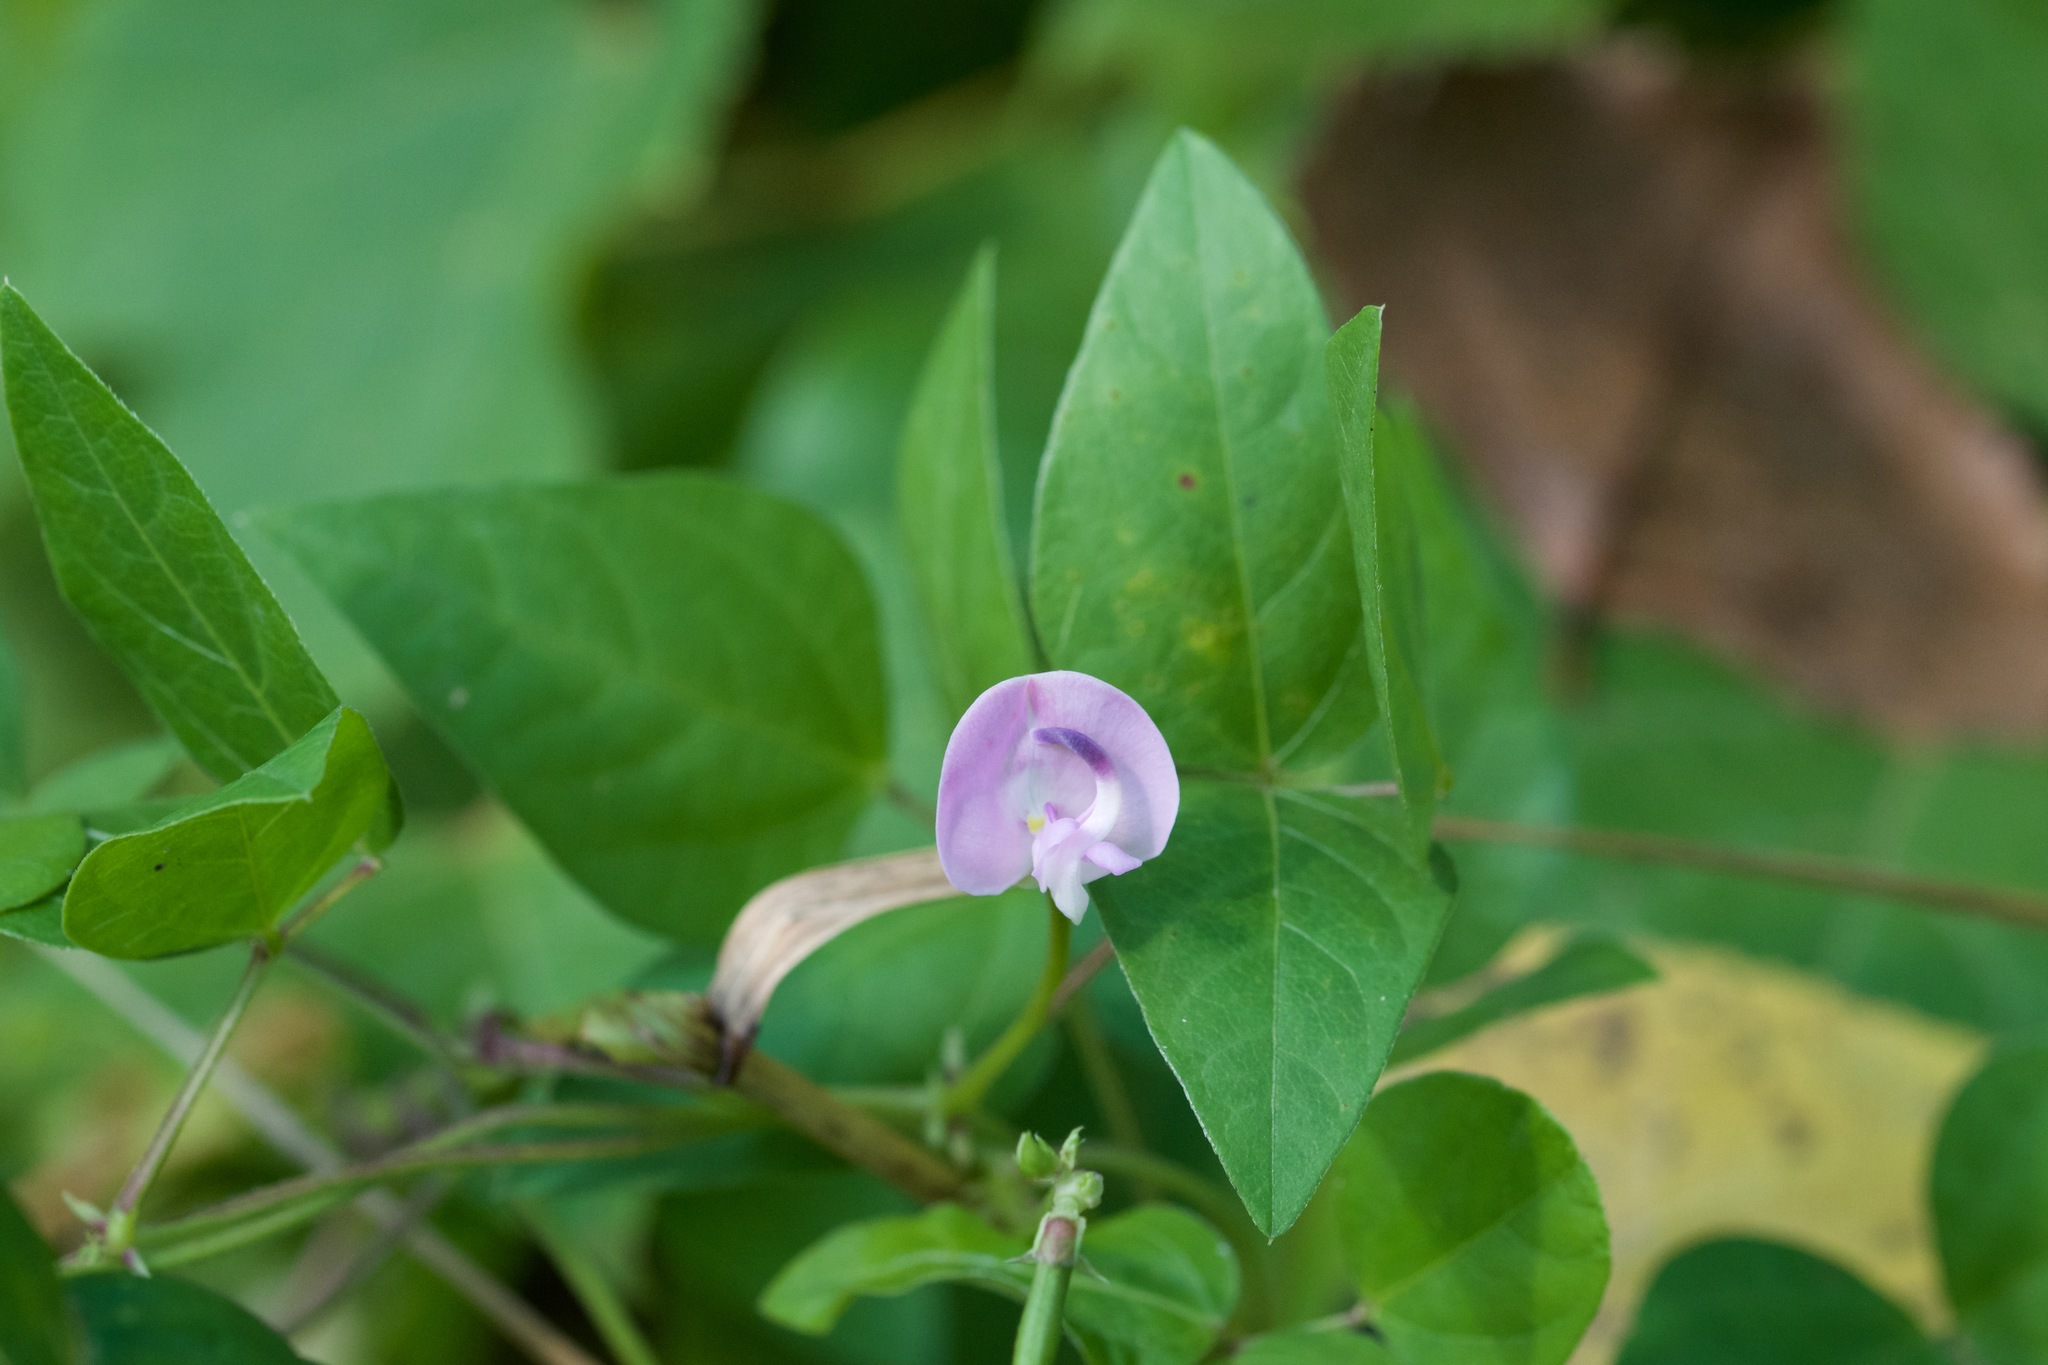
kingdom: Plantae
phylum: Tracheophyta
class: Magnoliopsida
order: Fabales
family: Fabaceae
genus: Strophostyles
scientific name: Strophostyles helvola
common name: Trailing wild bean
